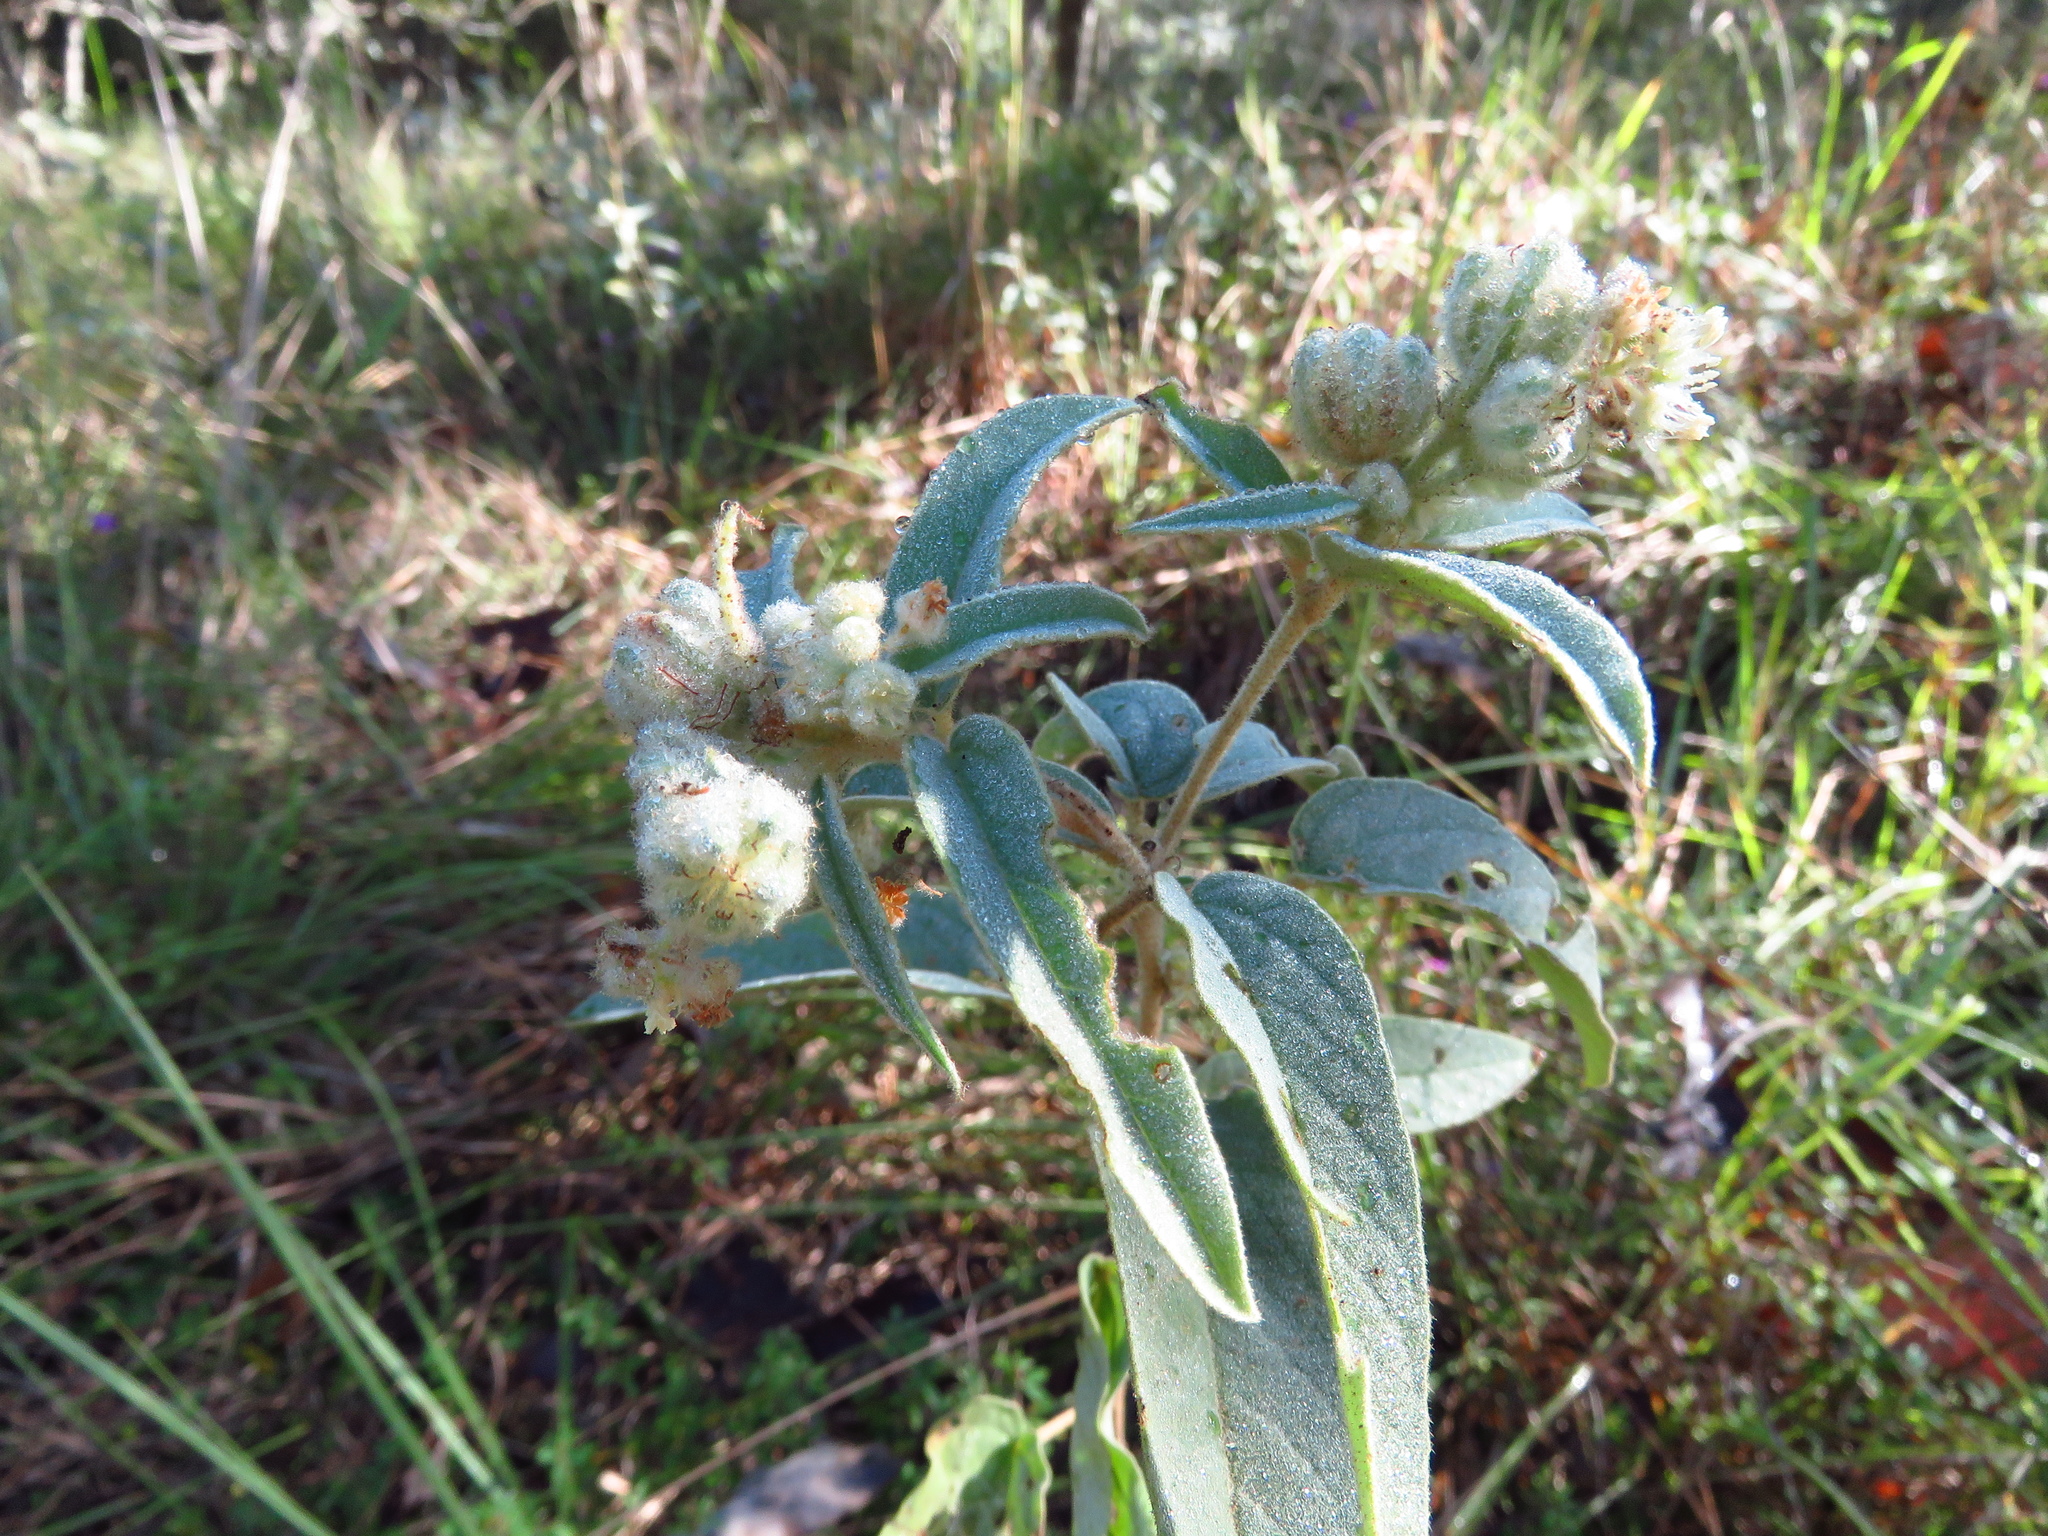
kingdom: Plantae
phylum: Tracheophyta
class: Magnoliopsida
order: Malpighiales
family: Euphorbiaceae
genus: Croton
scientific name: Croton lindheimeri
